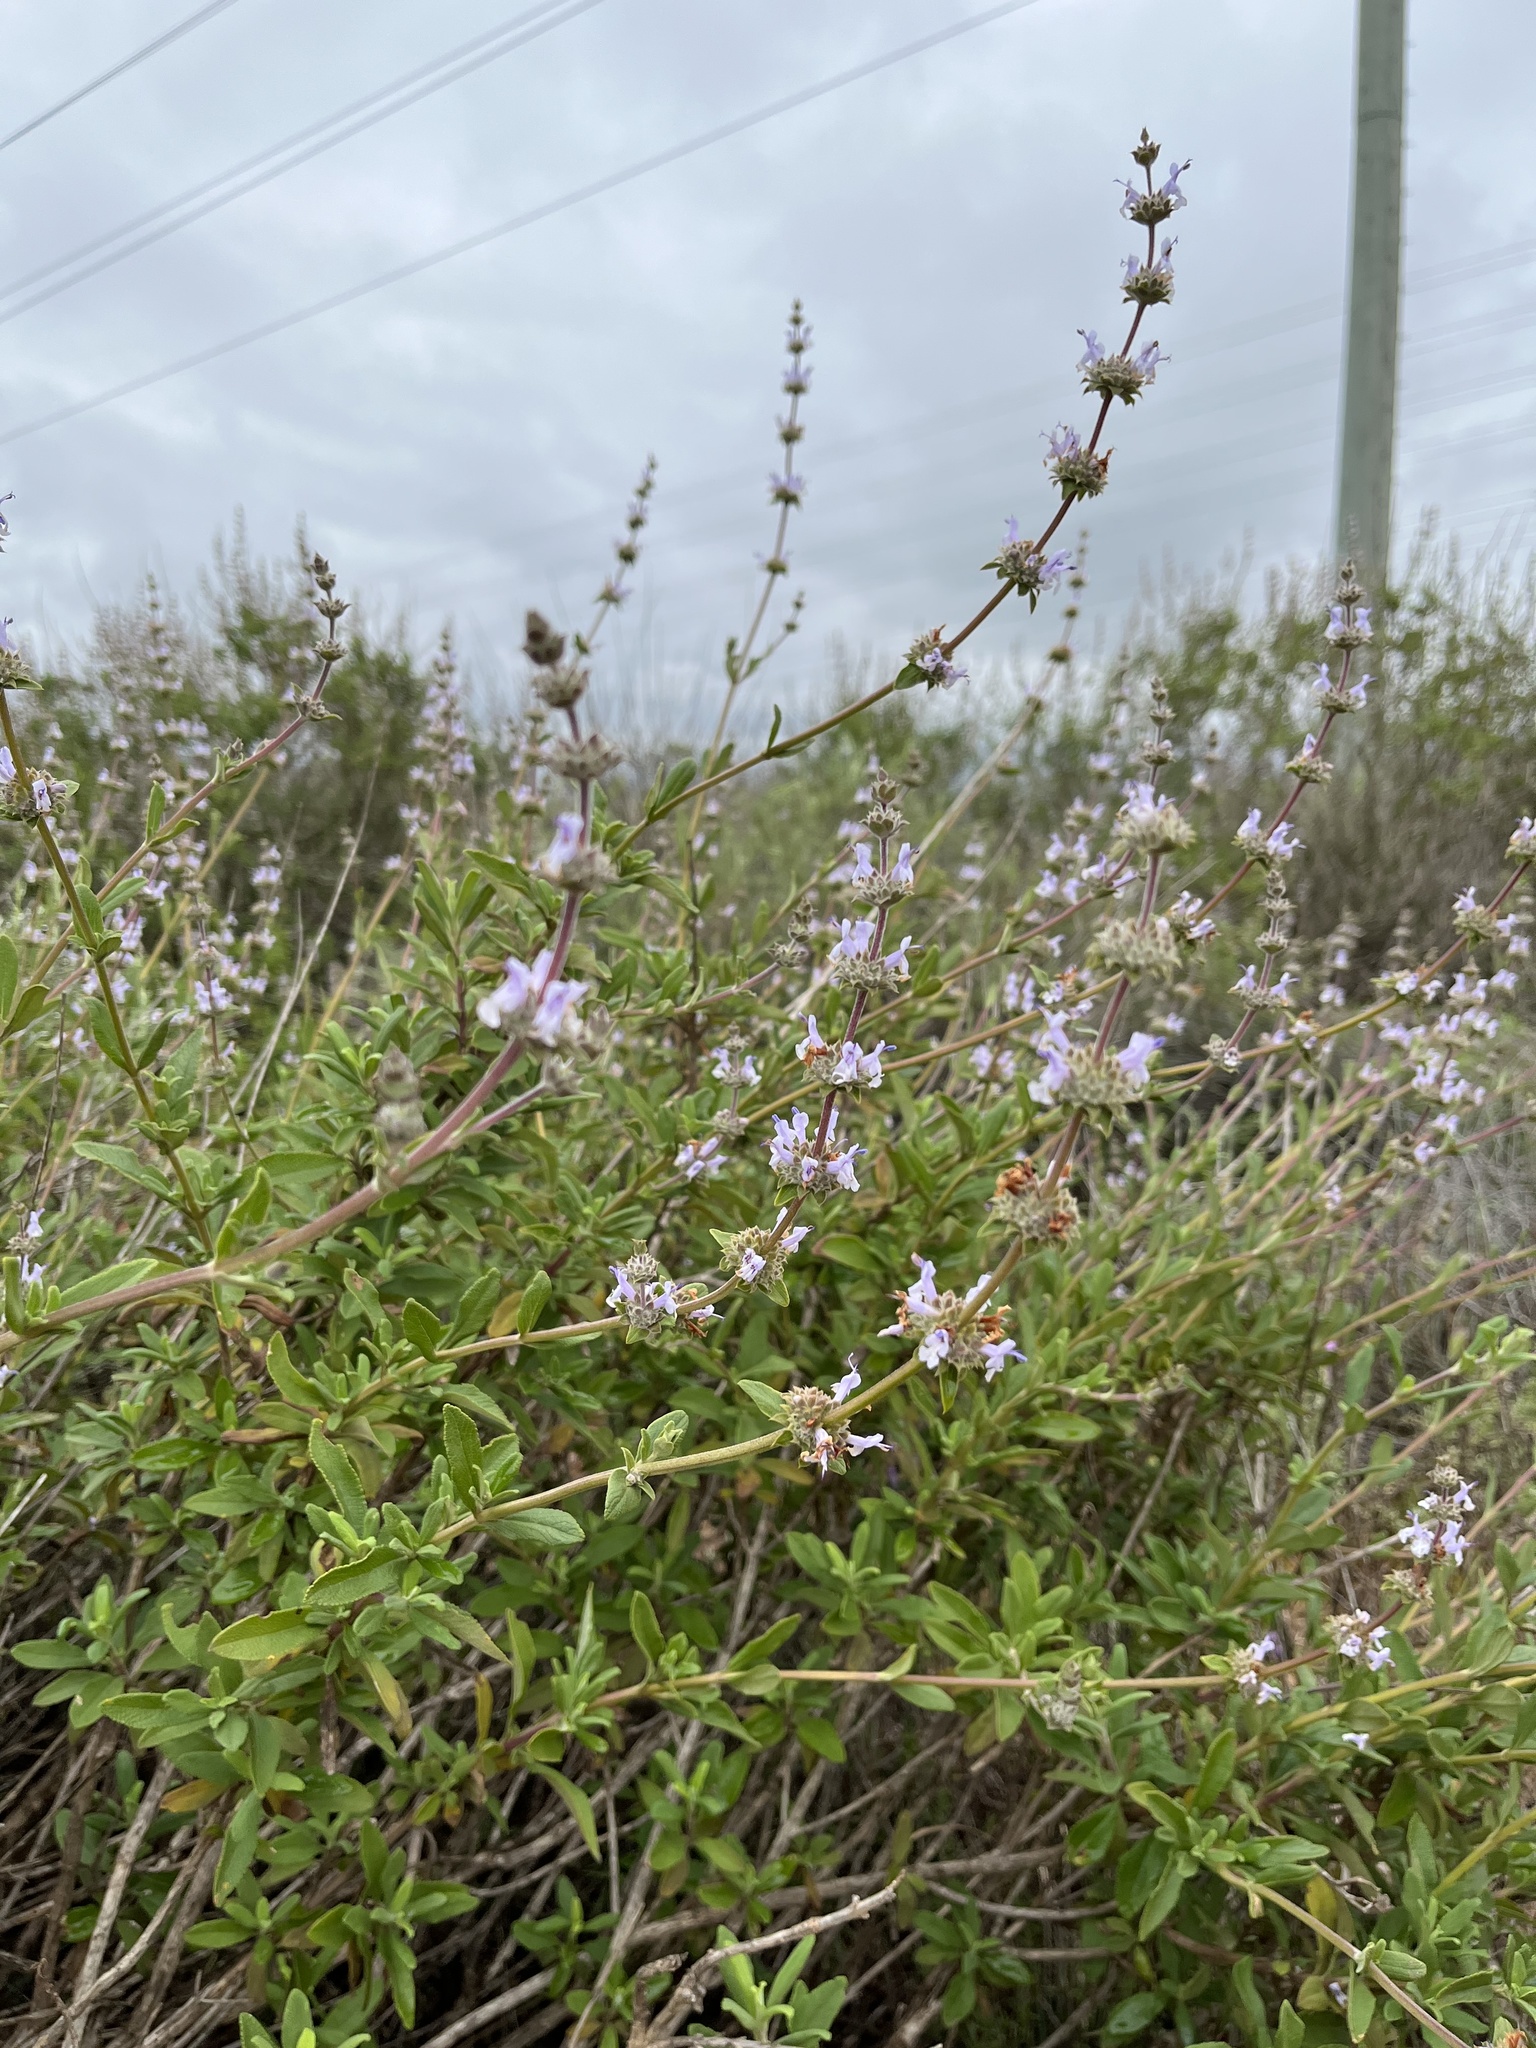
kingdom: Plantae
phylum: Tracheophyta
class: Magnoliopsida
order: Lamiales
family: Lamiaceae
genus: Salvia
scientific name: Salvia mellifera
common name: Black sage
